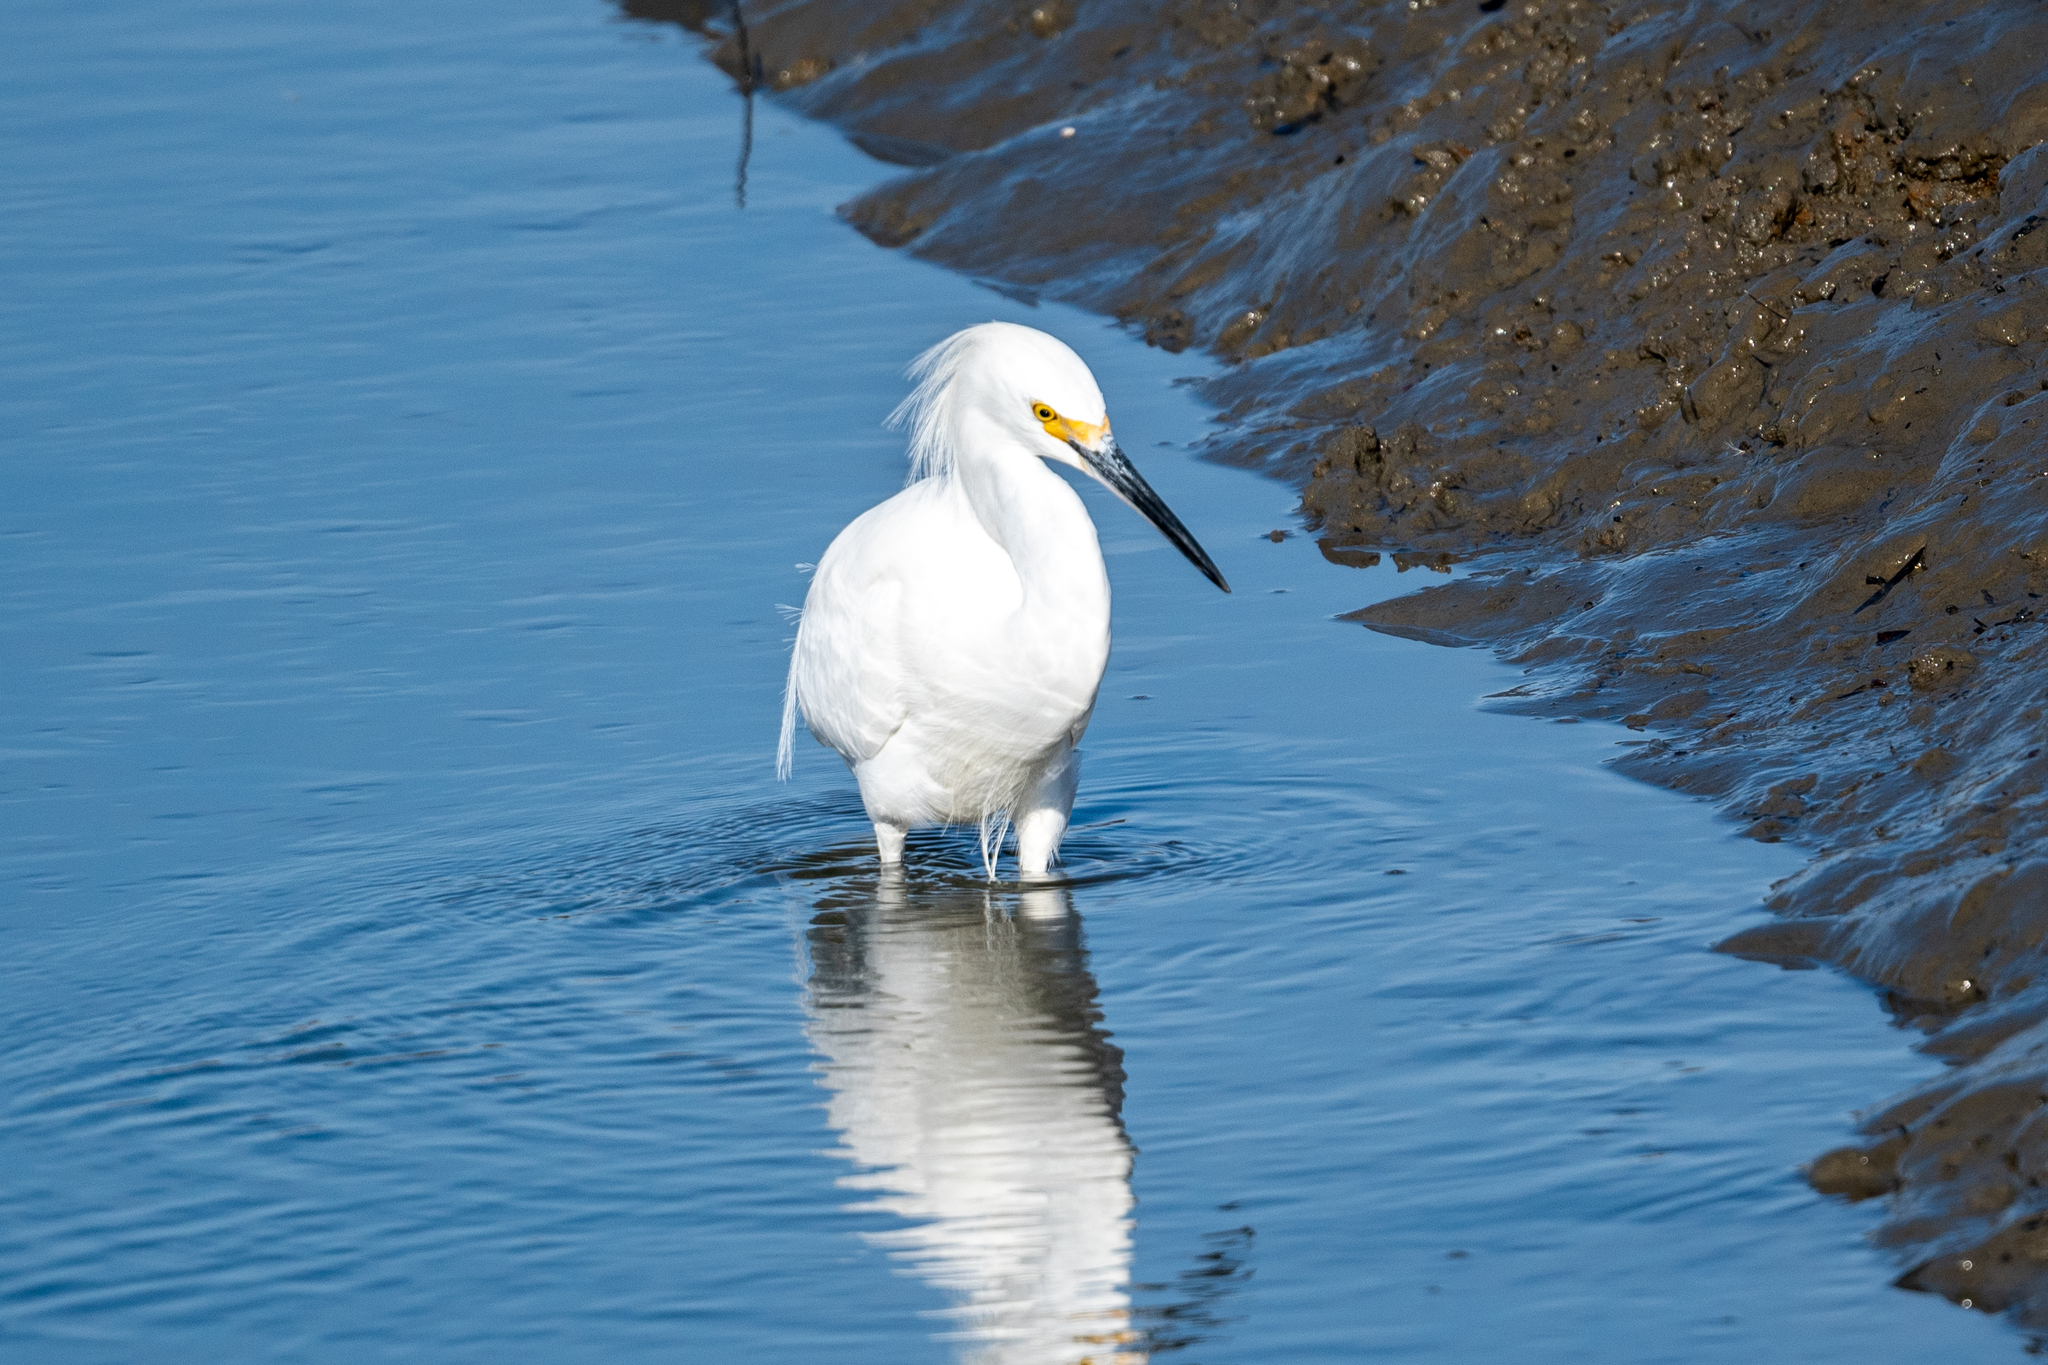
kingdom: Animalia
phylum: Chordata
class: Aves
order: Pelecaniformes
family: Ardeidae
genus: Egretta
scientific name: Egretta thula
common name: Snowy egret
